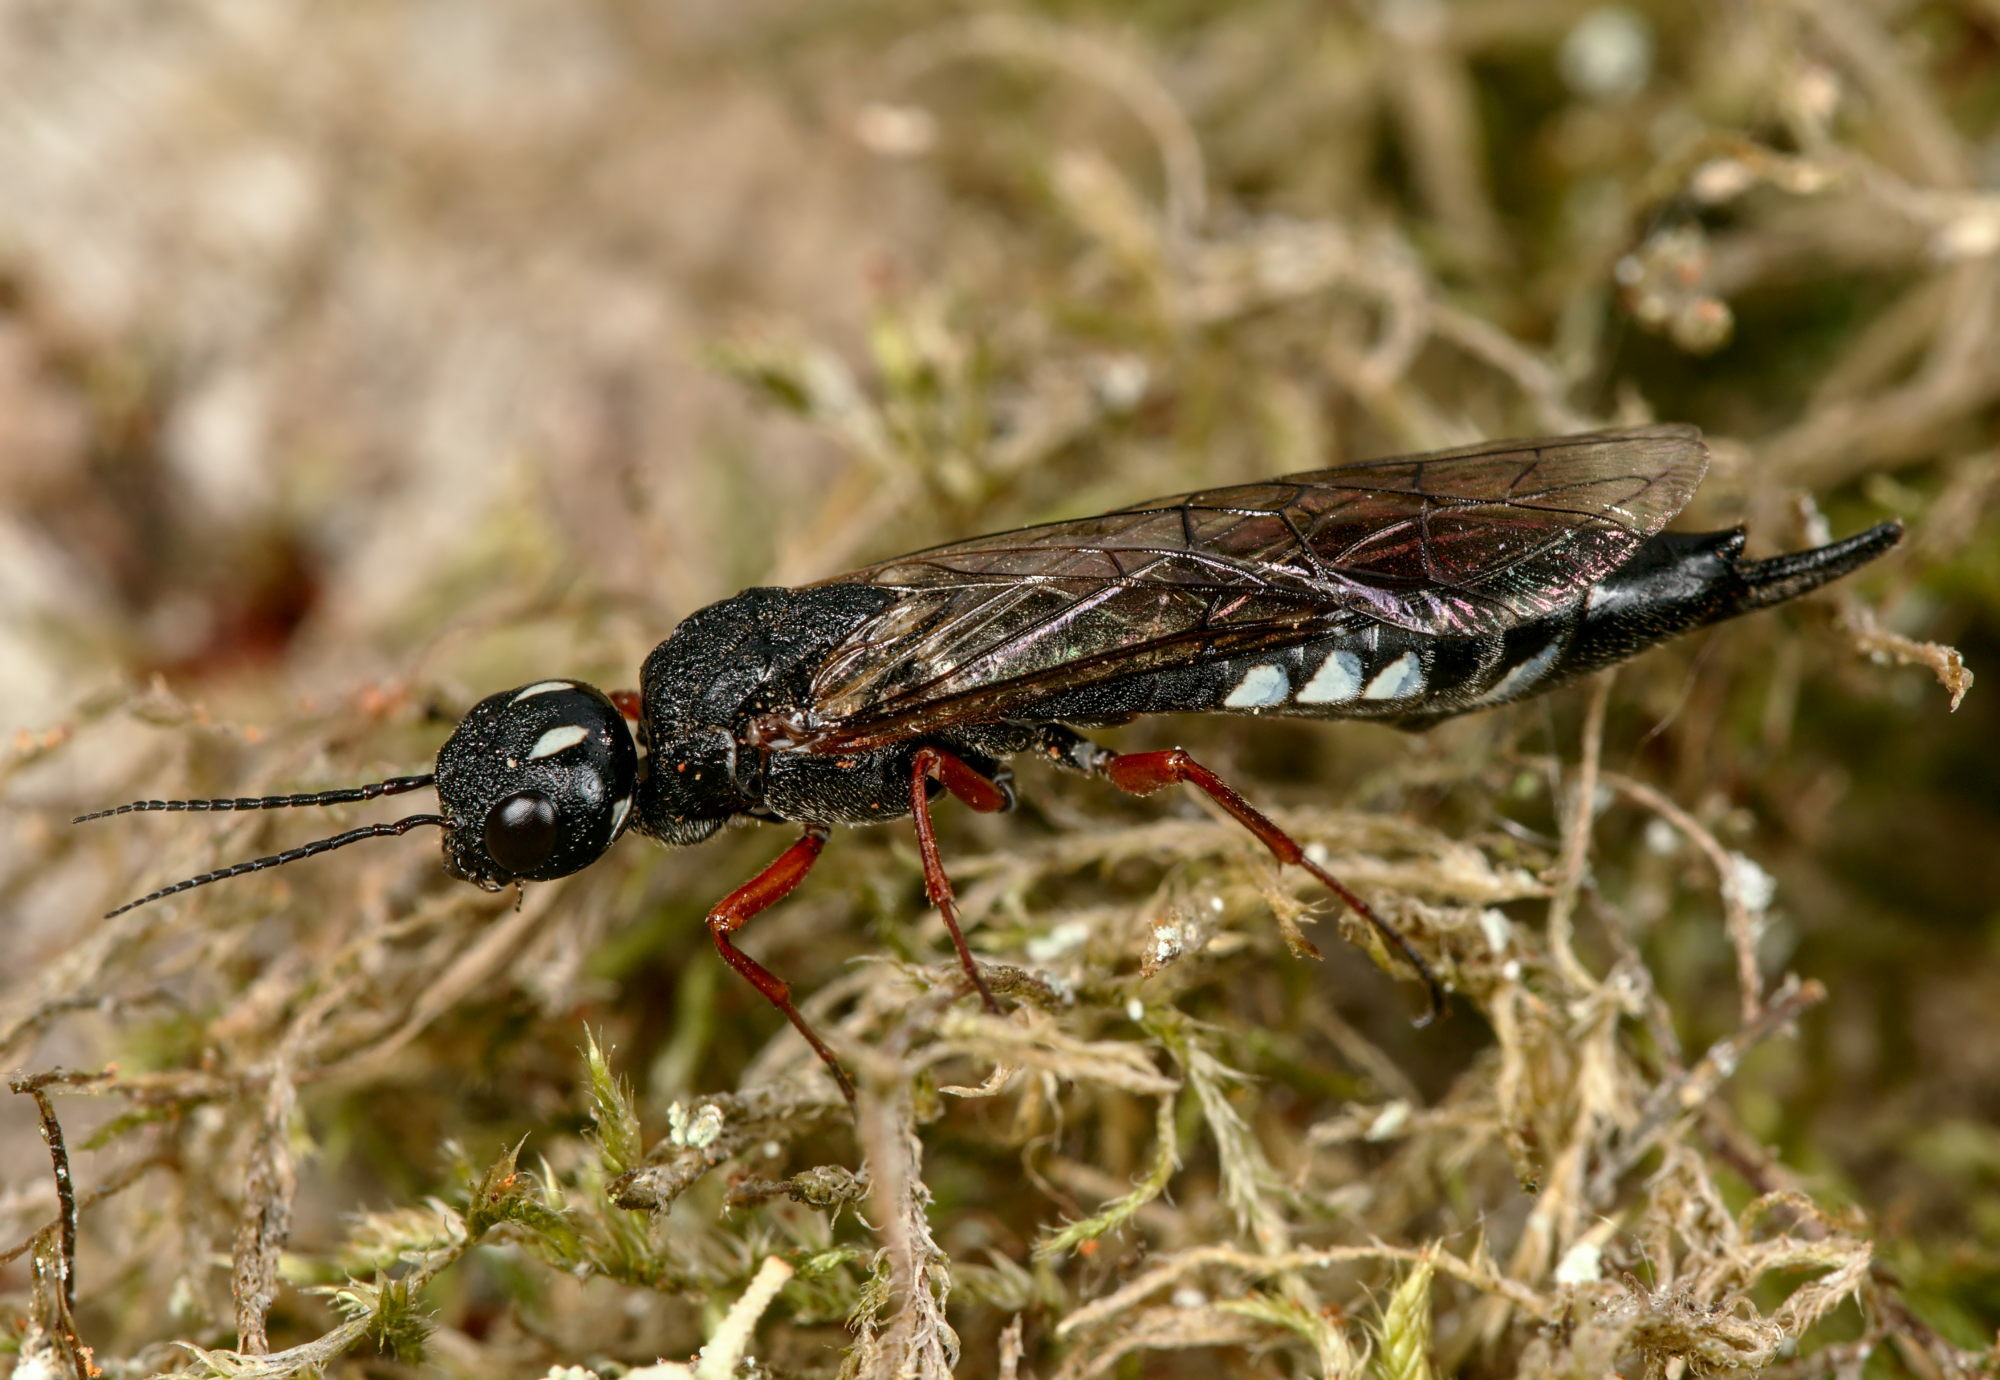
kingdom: Animalia
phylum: Arthropoda
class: Insecta
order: Hymenoptera
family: Xiphydriidae
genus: Xiphydria
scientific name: Xiphydria camelus
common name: Alder wood-wasp
